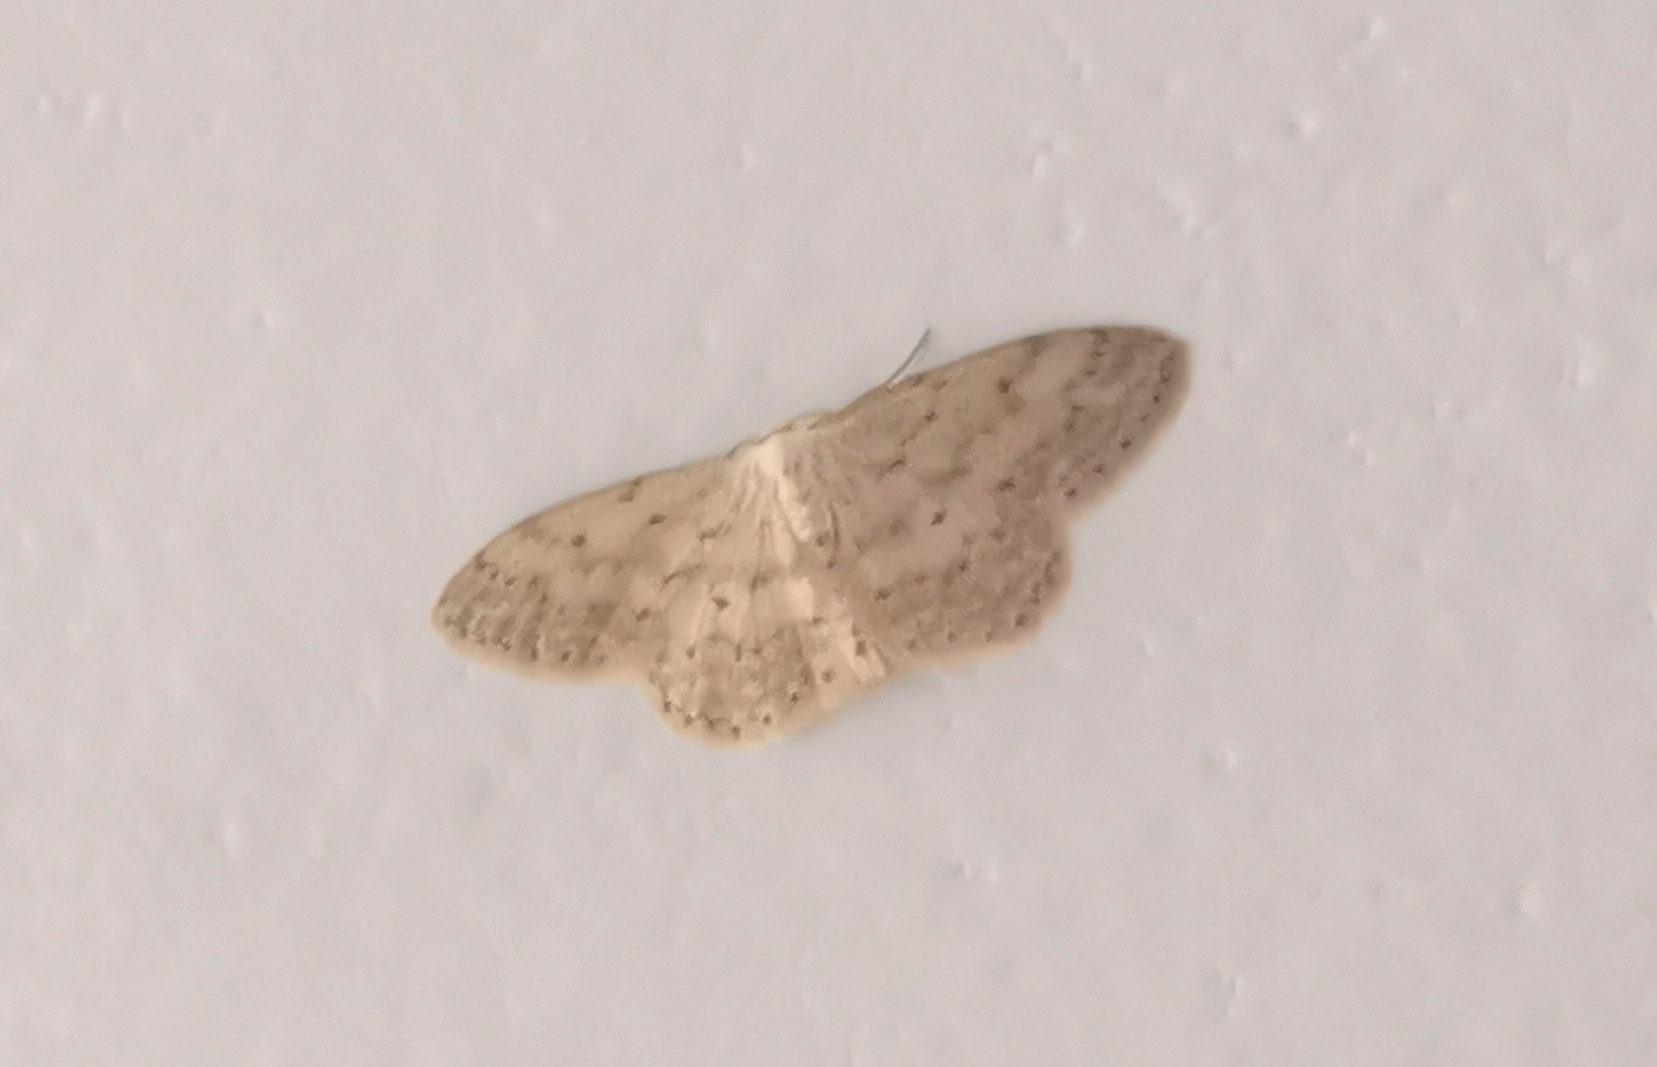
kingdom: Animalia
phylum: Arthropoda
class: Insecta
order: Lepidoptera
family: Geometridae
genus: Idaea
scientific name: Idaea seriata
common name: Small dusty wave
